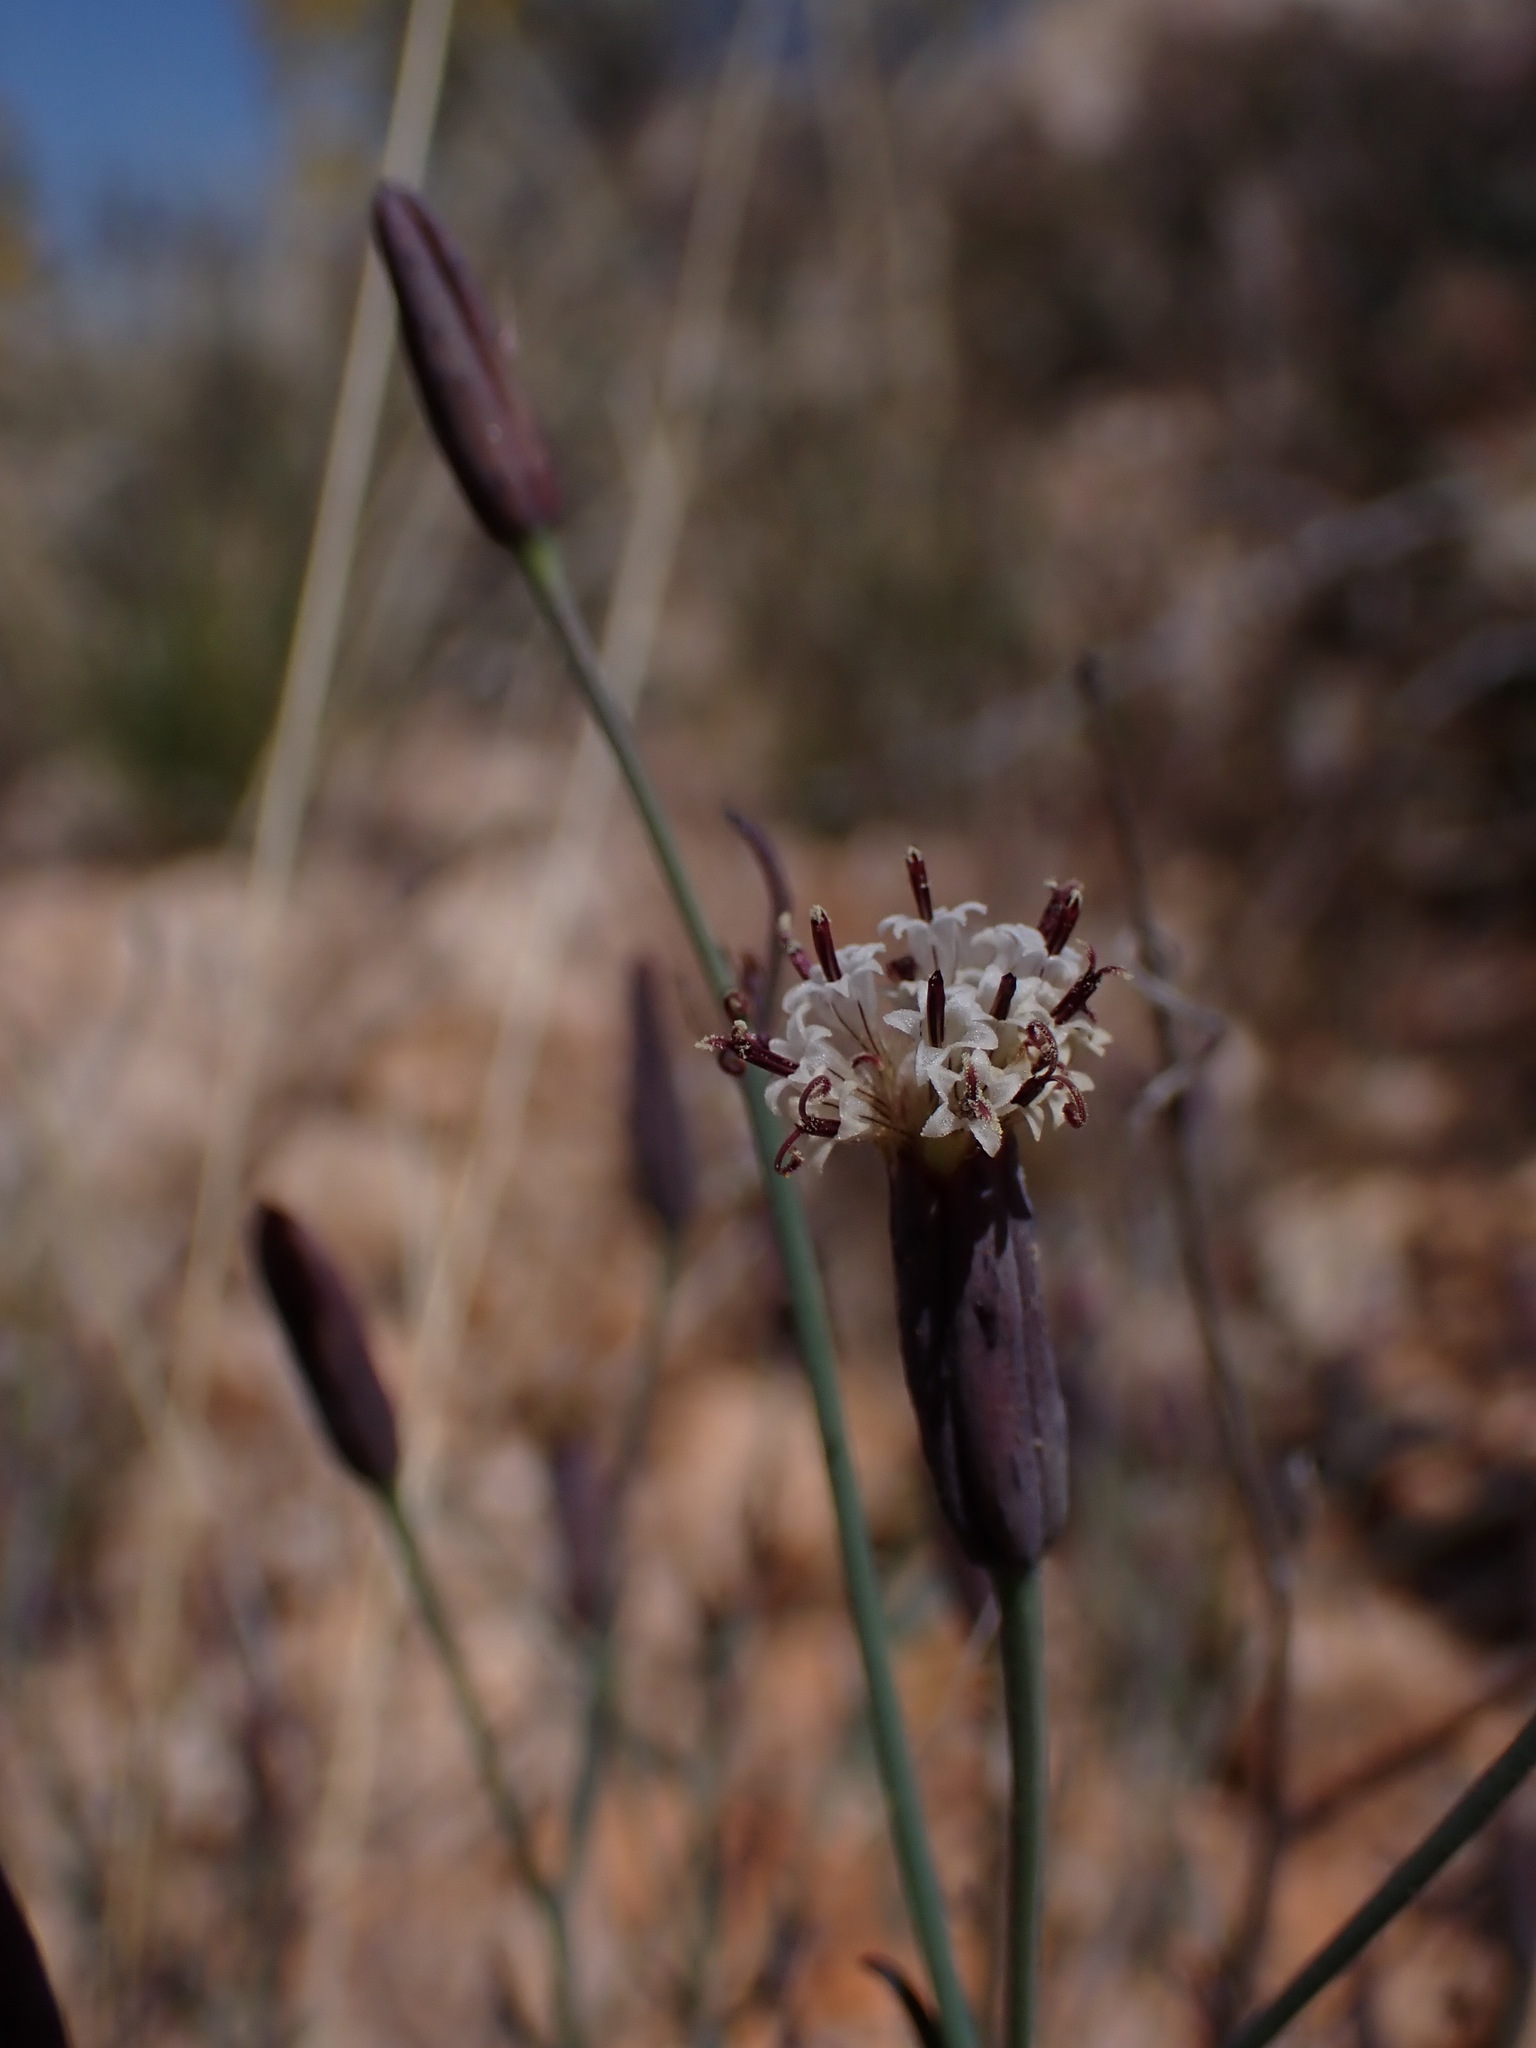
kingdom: Plantae
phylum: Tracheophyta
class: Magnoliopsida
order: Asterales
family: Asteraceae
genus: Porophyllum
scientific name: Porophyllum gracile
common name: Odora
